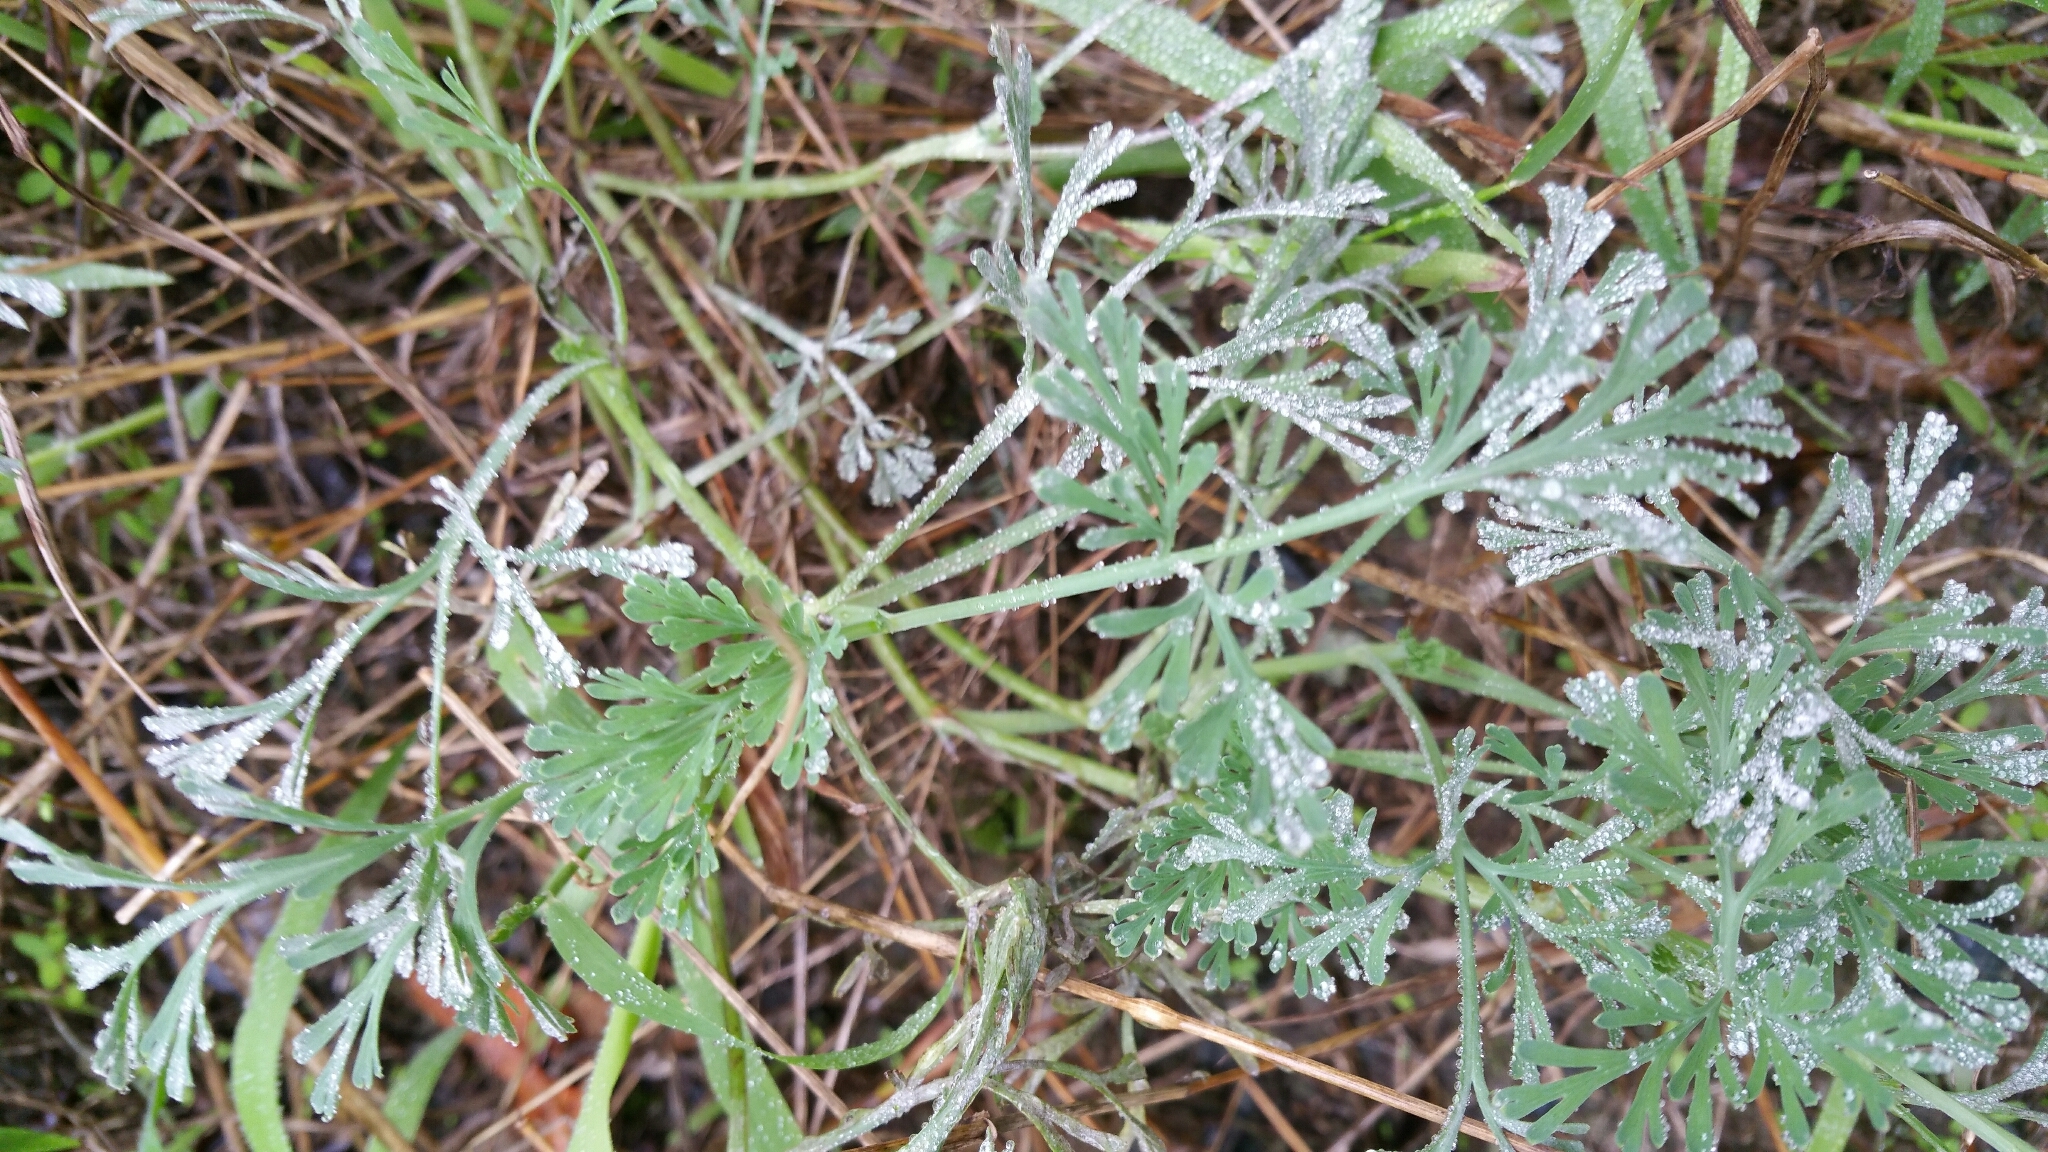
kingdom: Plantae
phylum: Tracheophyta
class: Magnoliopsida
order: Ranunculales
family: Papaveraceae
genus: Eschscholzia
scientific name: Eschscholzia californica
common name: California poppy
